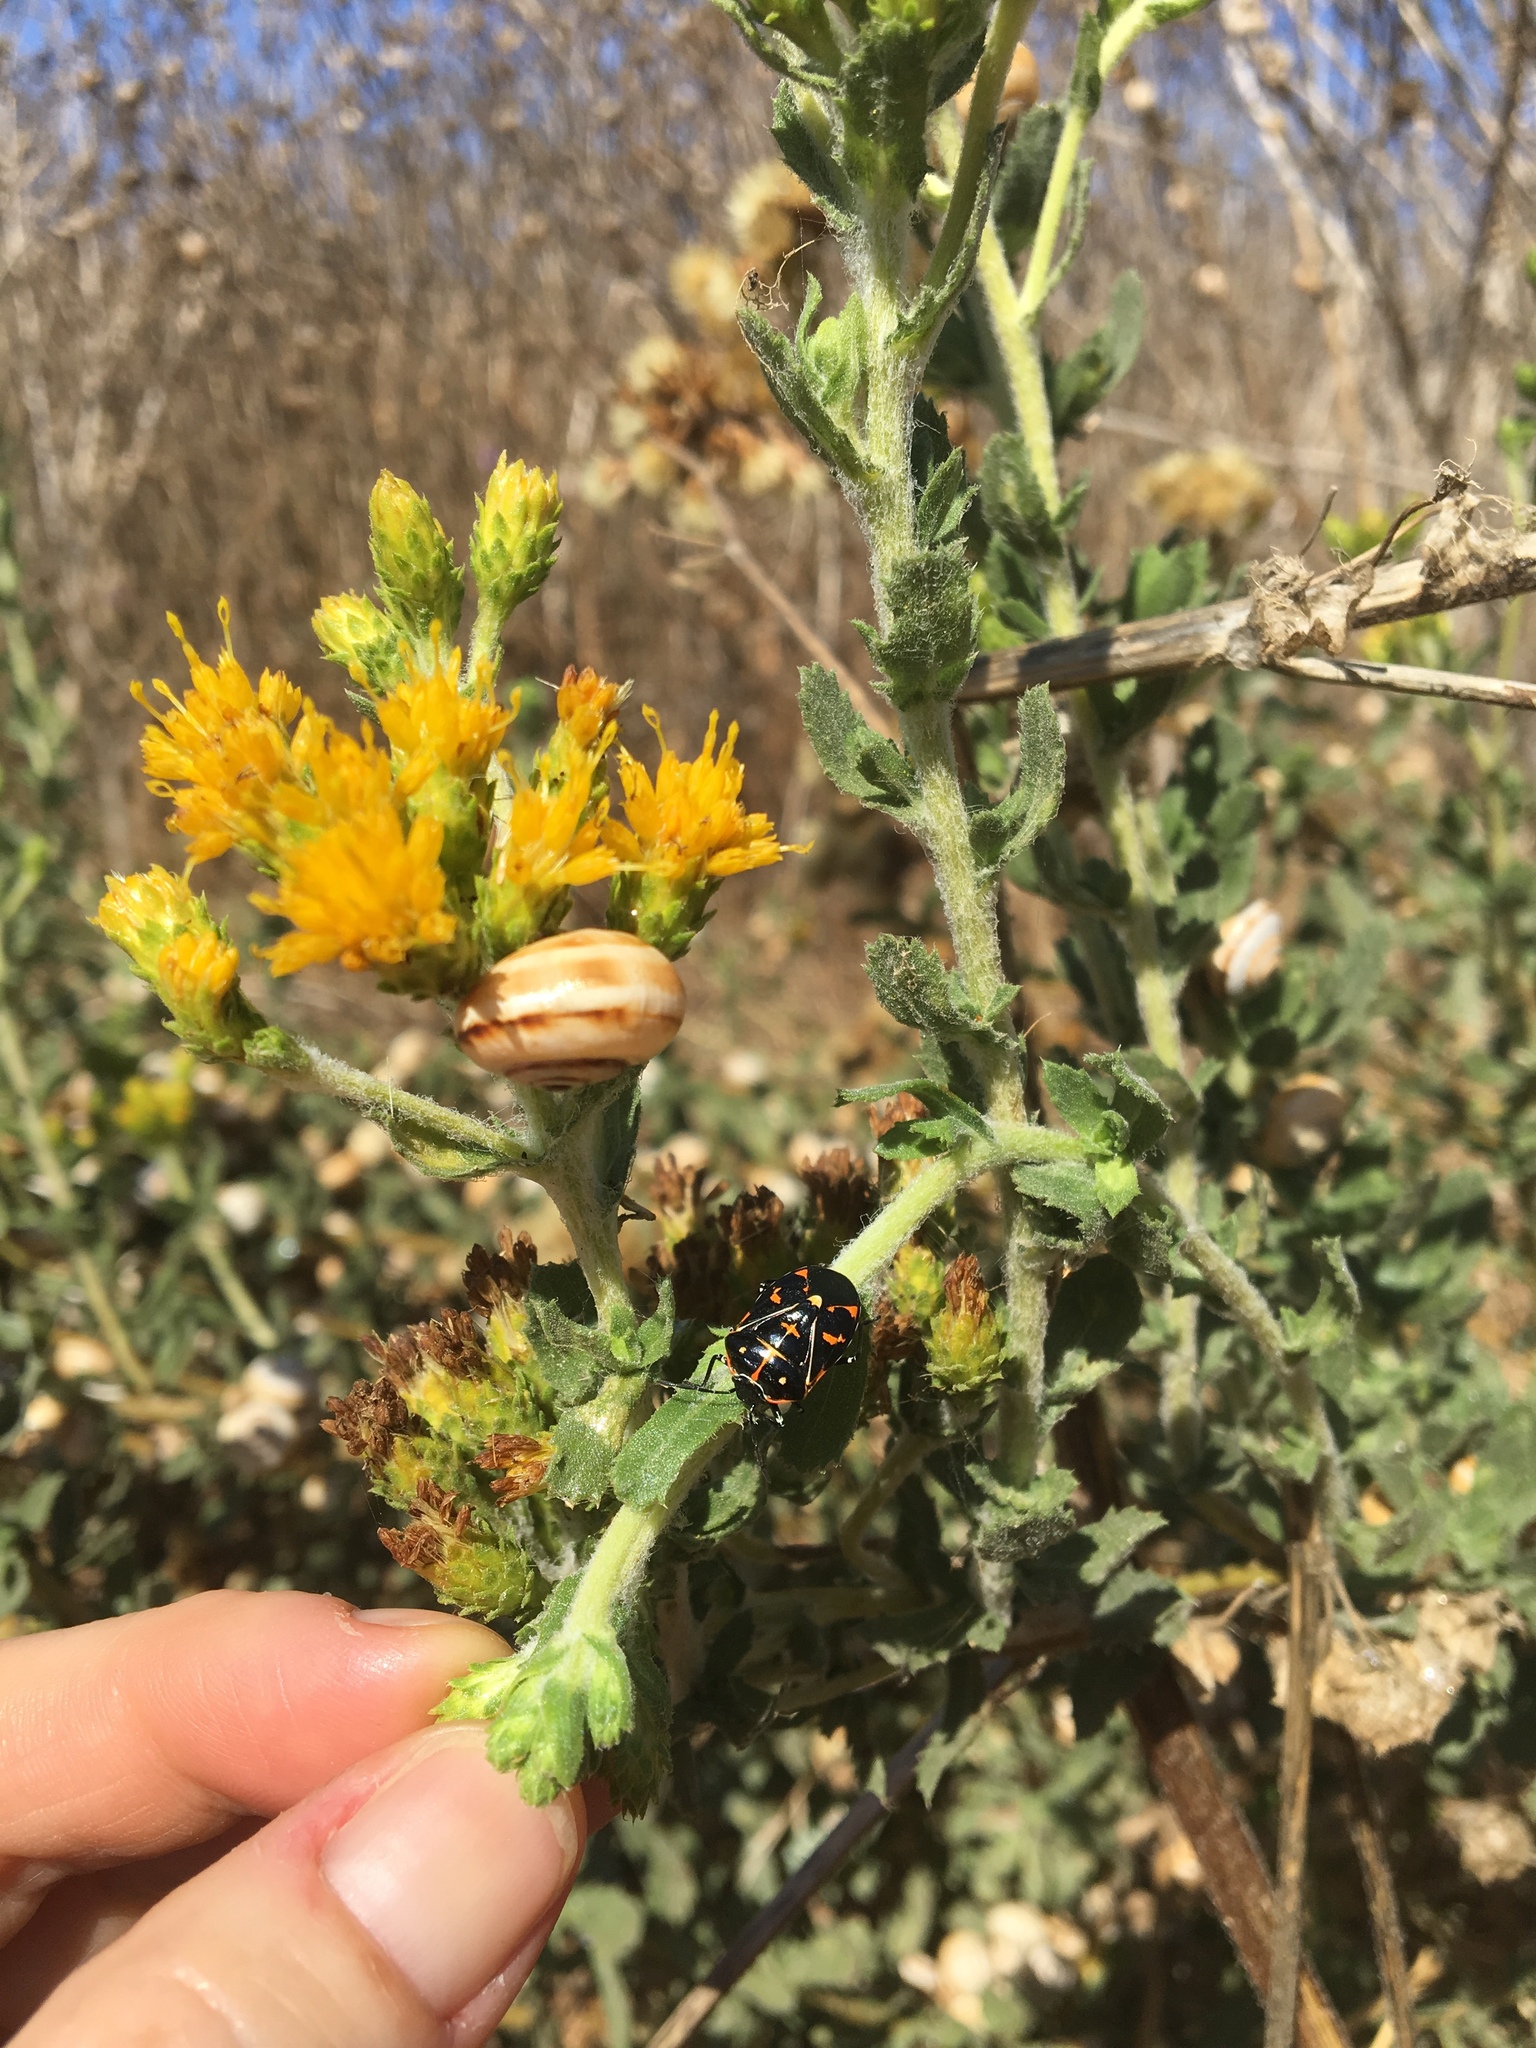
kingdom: Animalia
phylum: Arthropoda
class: Insecta
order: Hemiptera
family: Pentatomidae
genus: Murgantia
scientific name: Murgantia histrionica
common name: Harlequin bug
